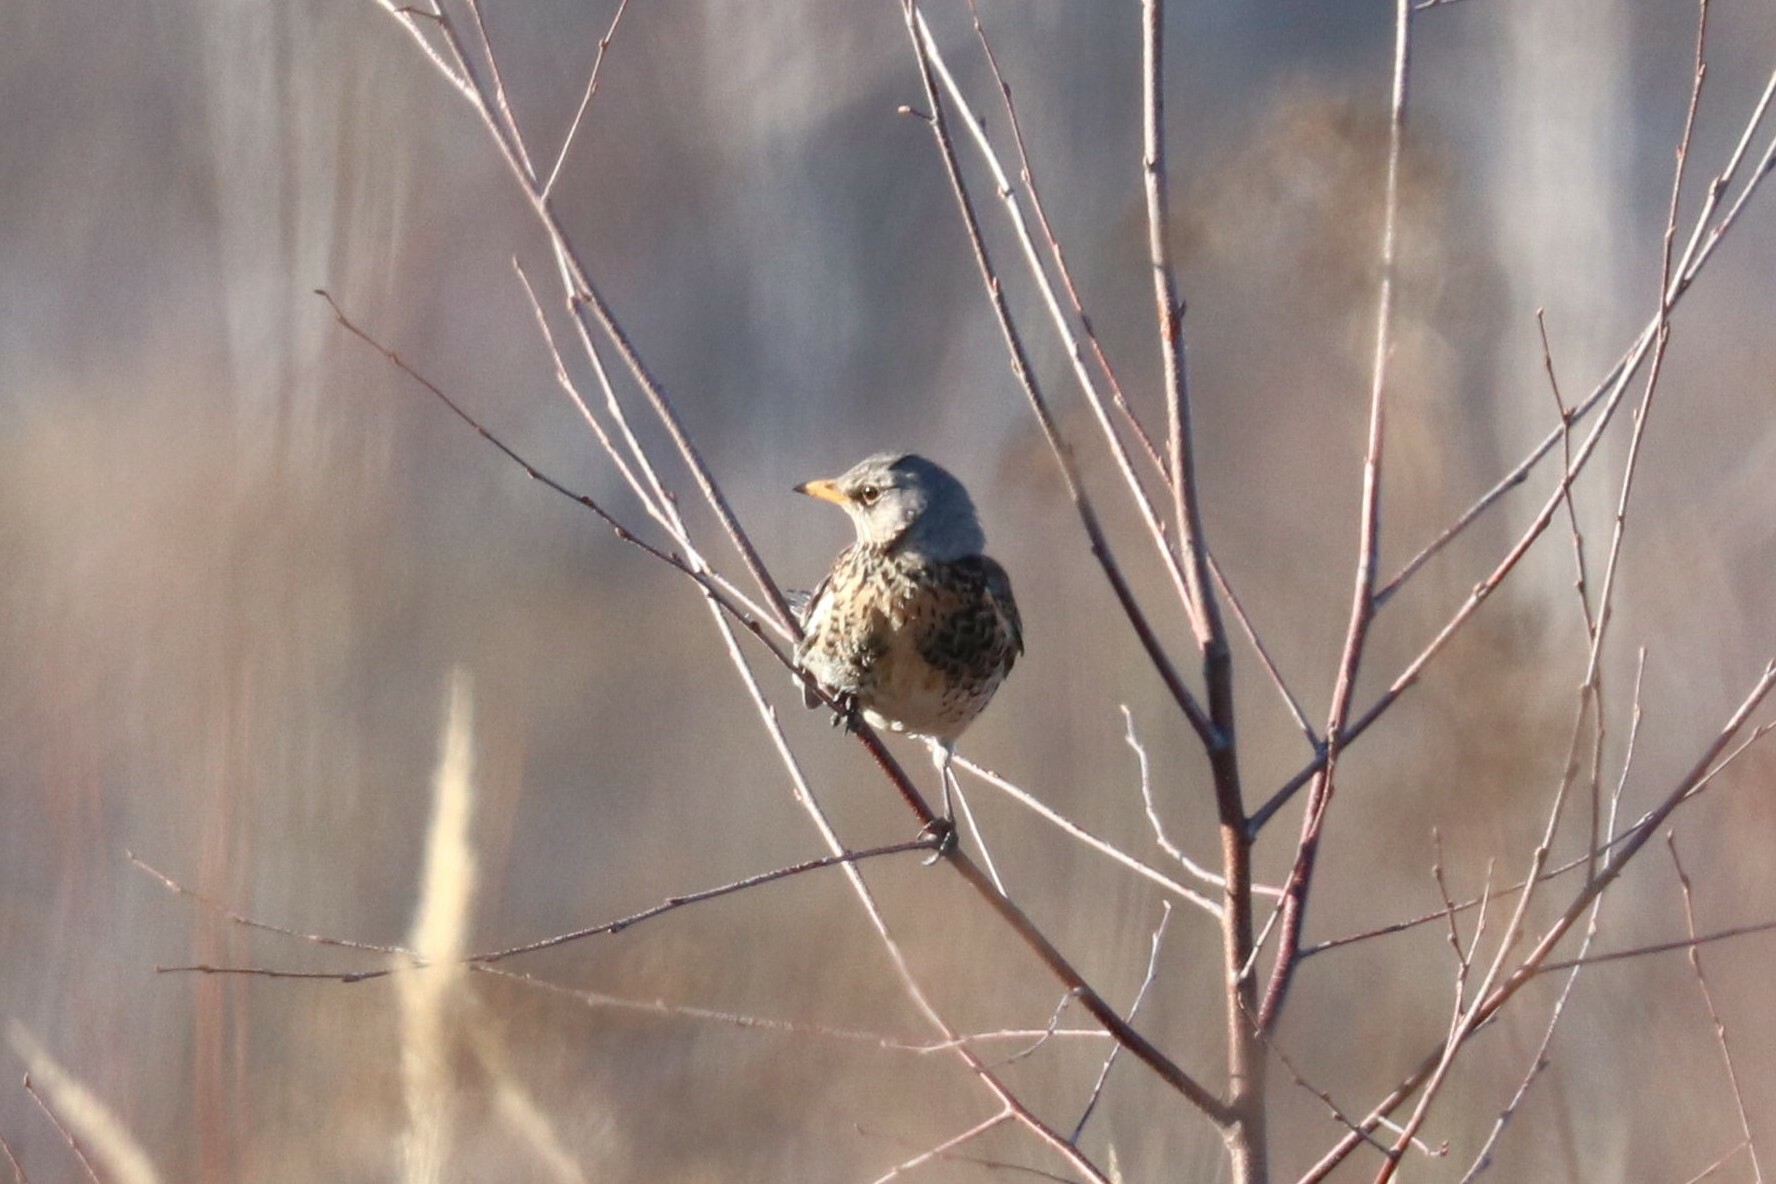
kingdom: Animalia
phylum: Chordata
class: Aves
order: Passeriformes
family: Turdidae
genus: Turdus
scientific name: Turdus pilaris
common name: Fieldfare
